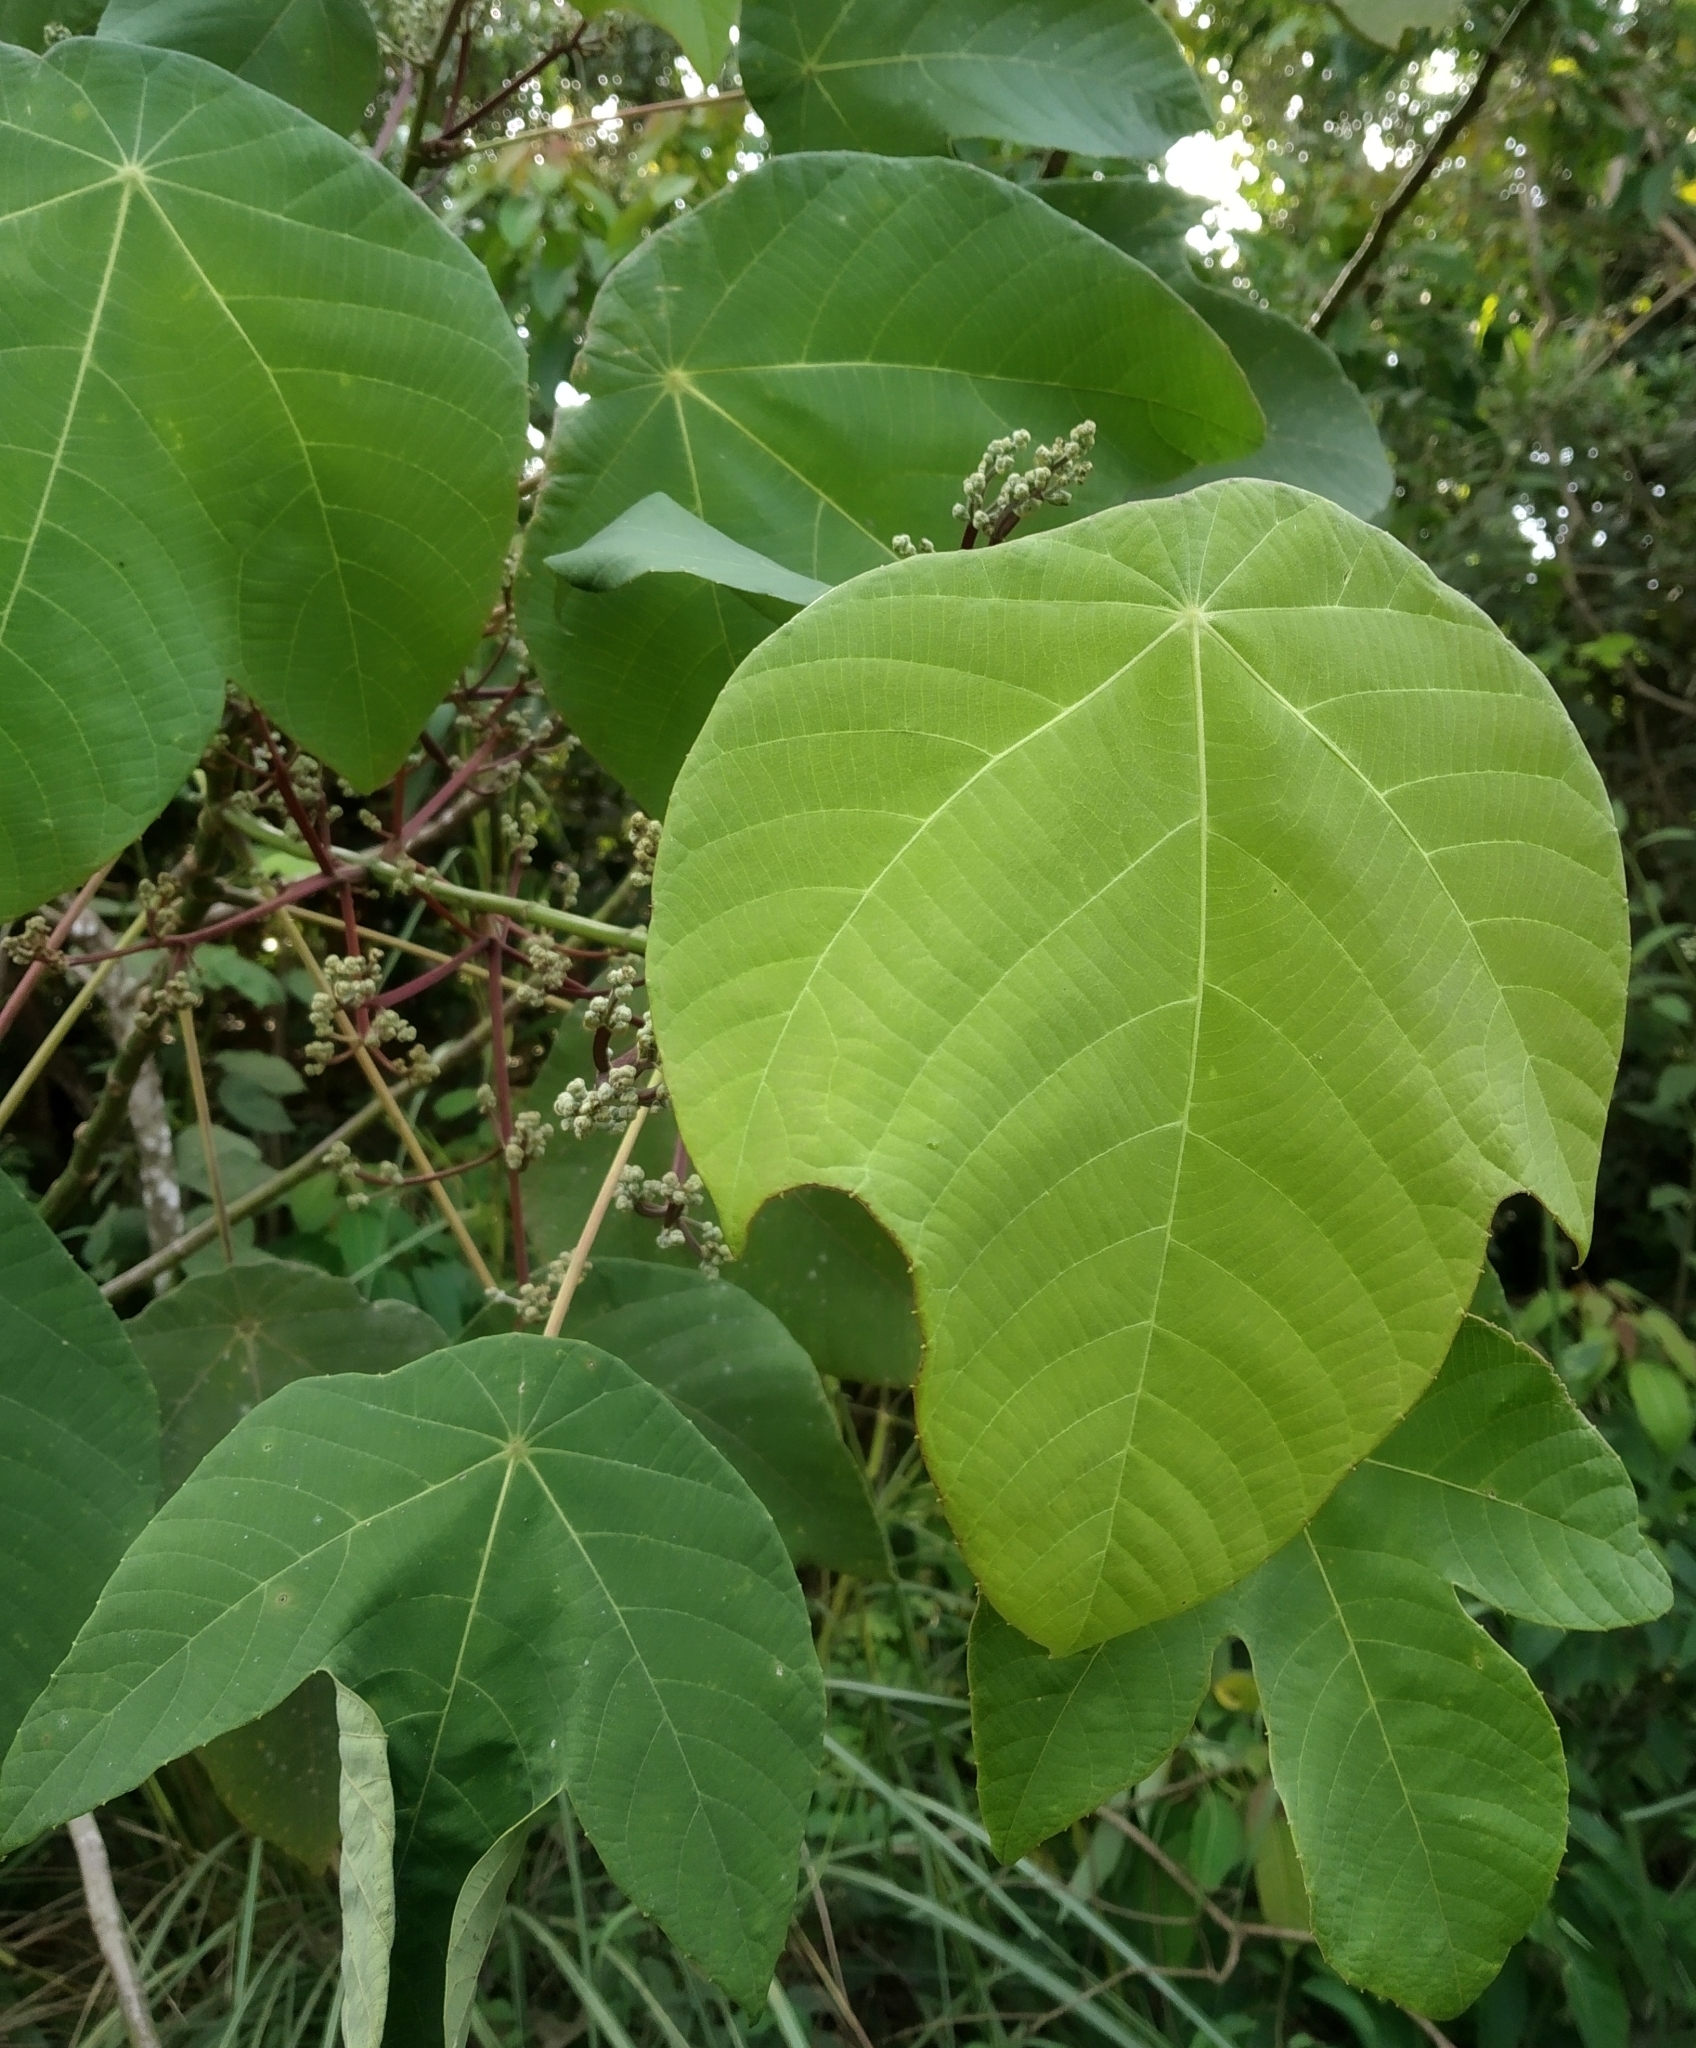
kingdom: Plantae
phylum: Tracheophyta
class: Magnoliopsida
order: Malpighiales
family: Euphorbiaceae
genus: Macaranga
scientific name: Macaranga bancana
